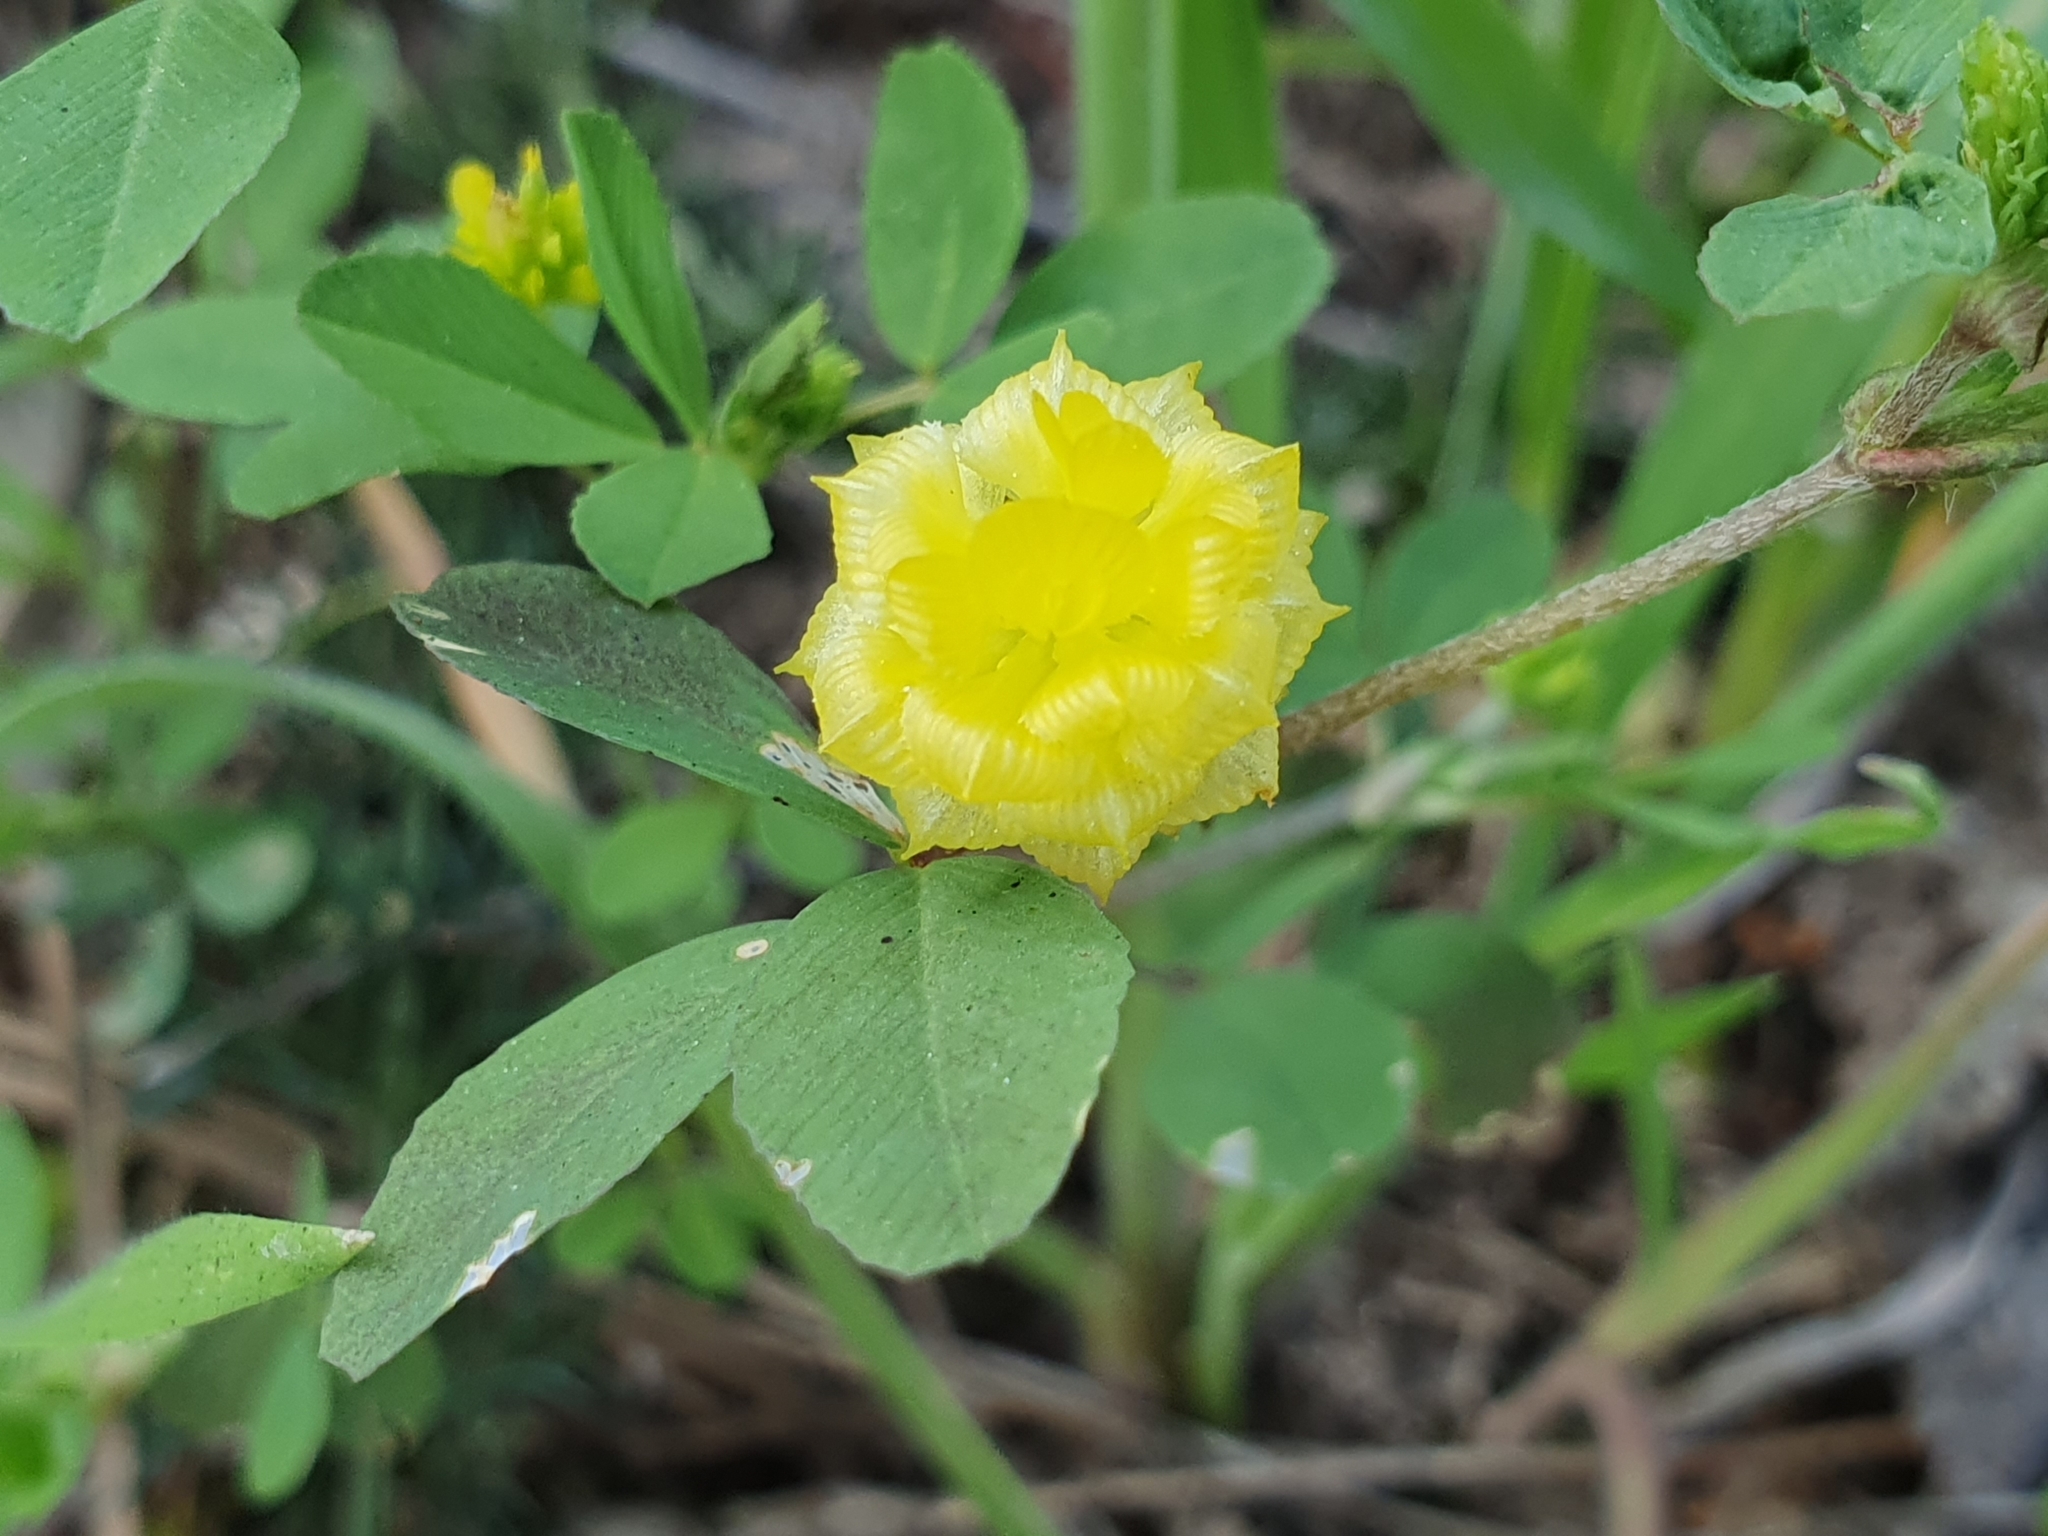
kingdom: Plantae
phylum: Tracheophyta
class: Magnoliopsida
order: Fabales
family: Fabaceae
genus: Trifolium
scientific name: Trifolium campestre
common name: Field clover
